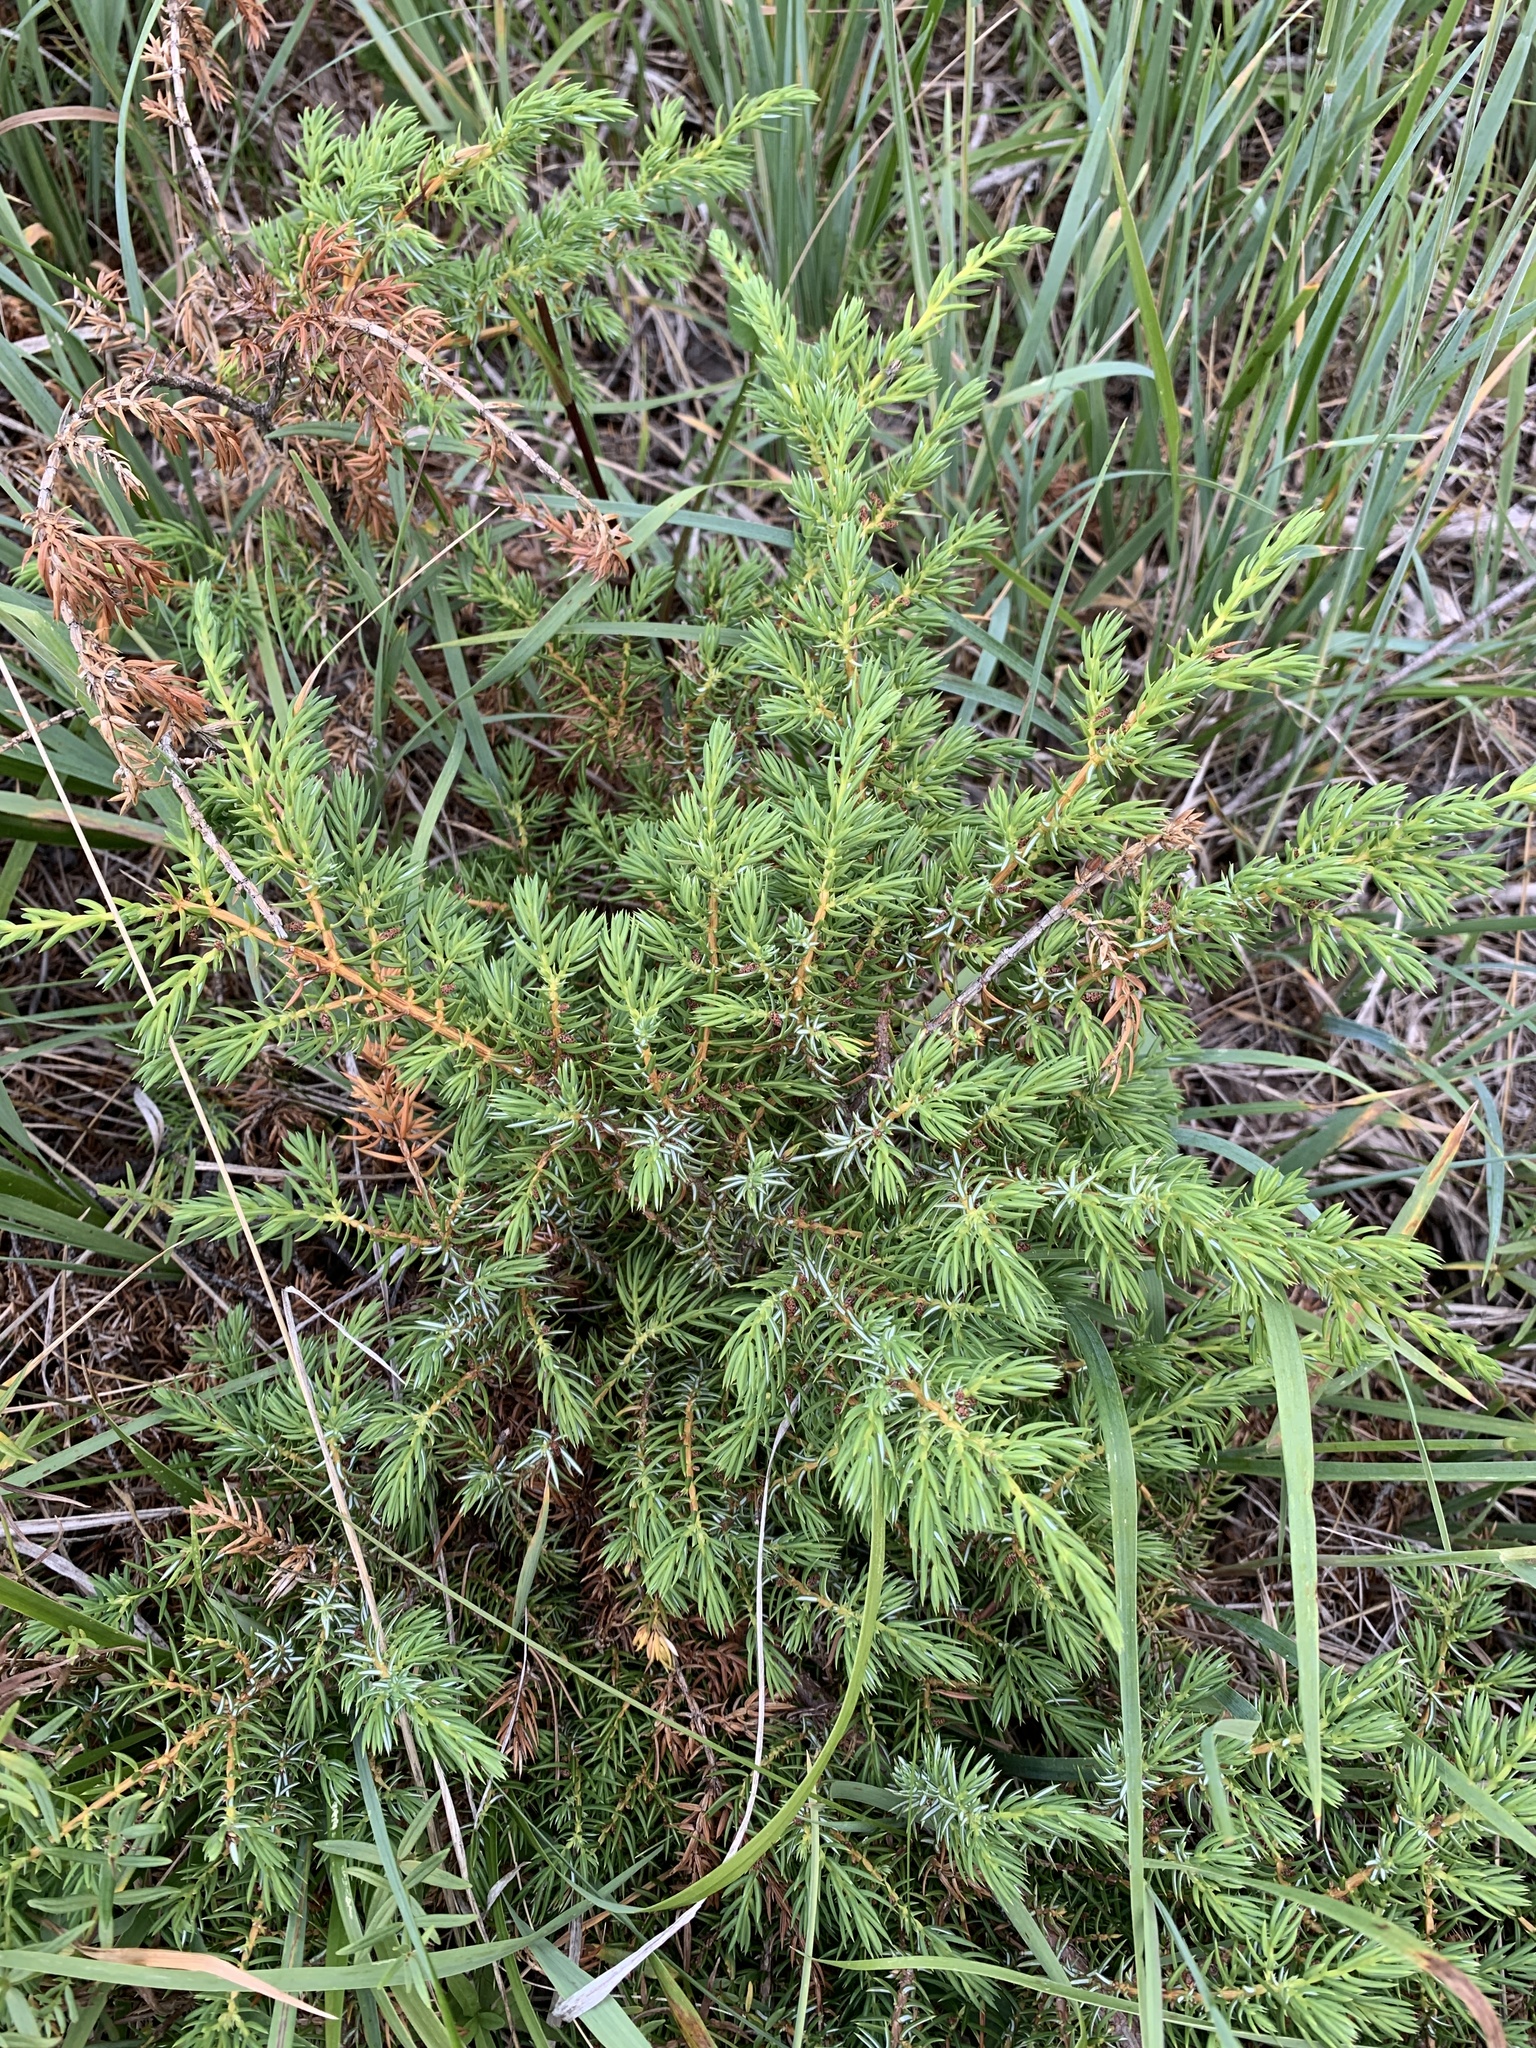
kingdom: Plantae
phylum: Tracheophyta
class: Pinopsida
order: Pinales
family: Cupressaceae
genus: Juniperus
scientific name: Juniperus communis
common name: Common juniper
